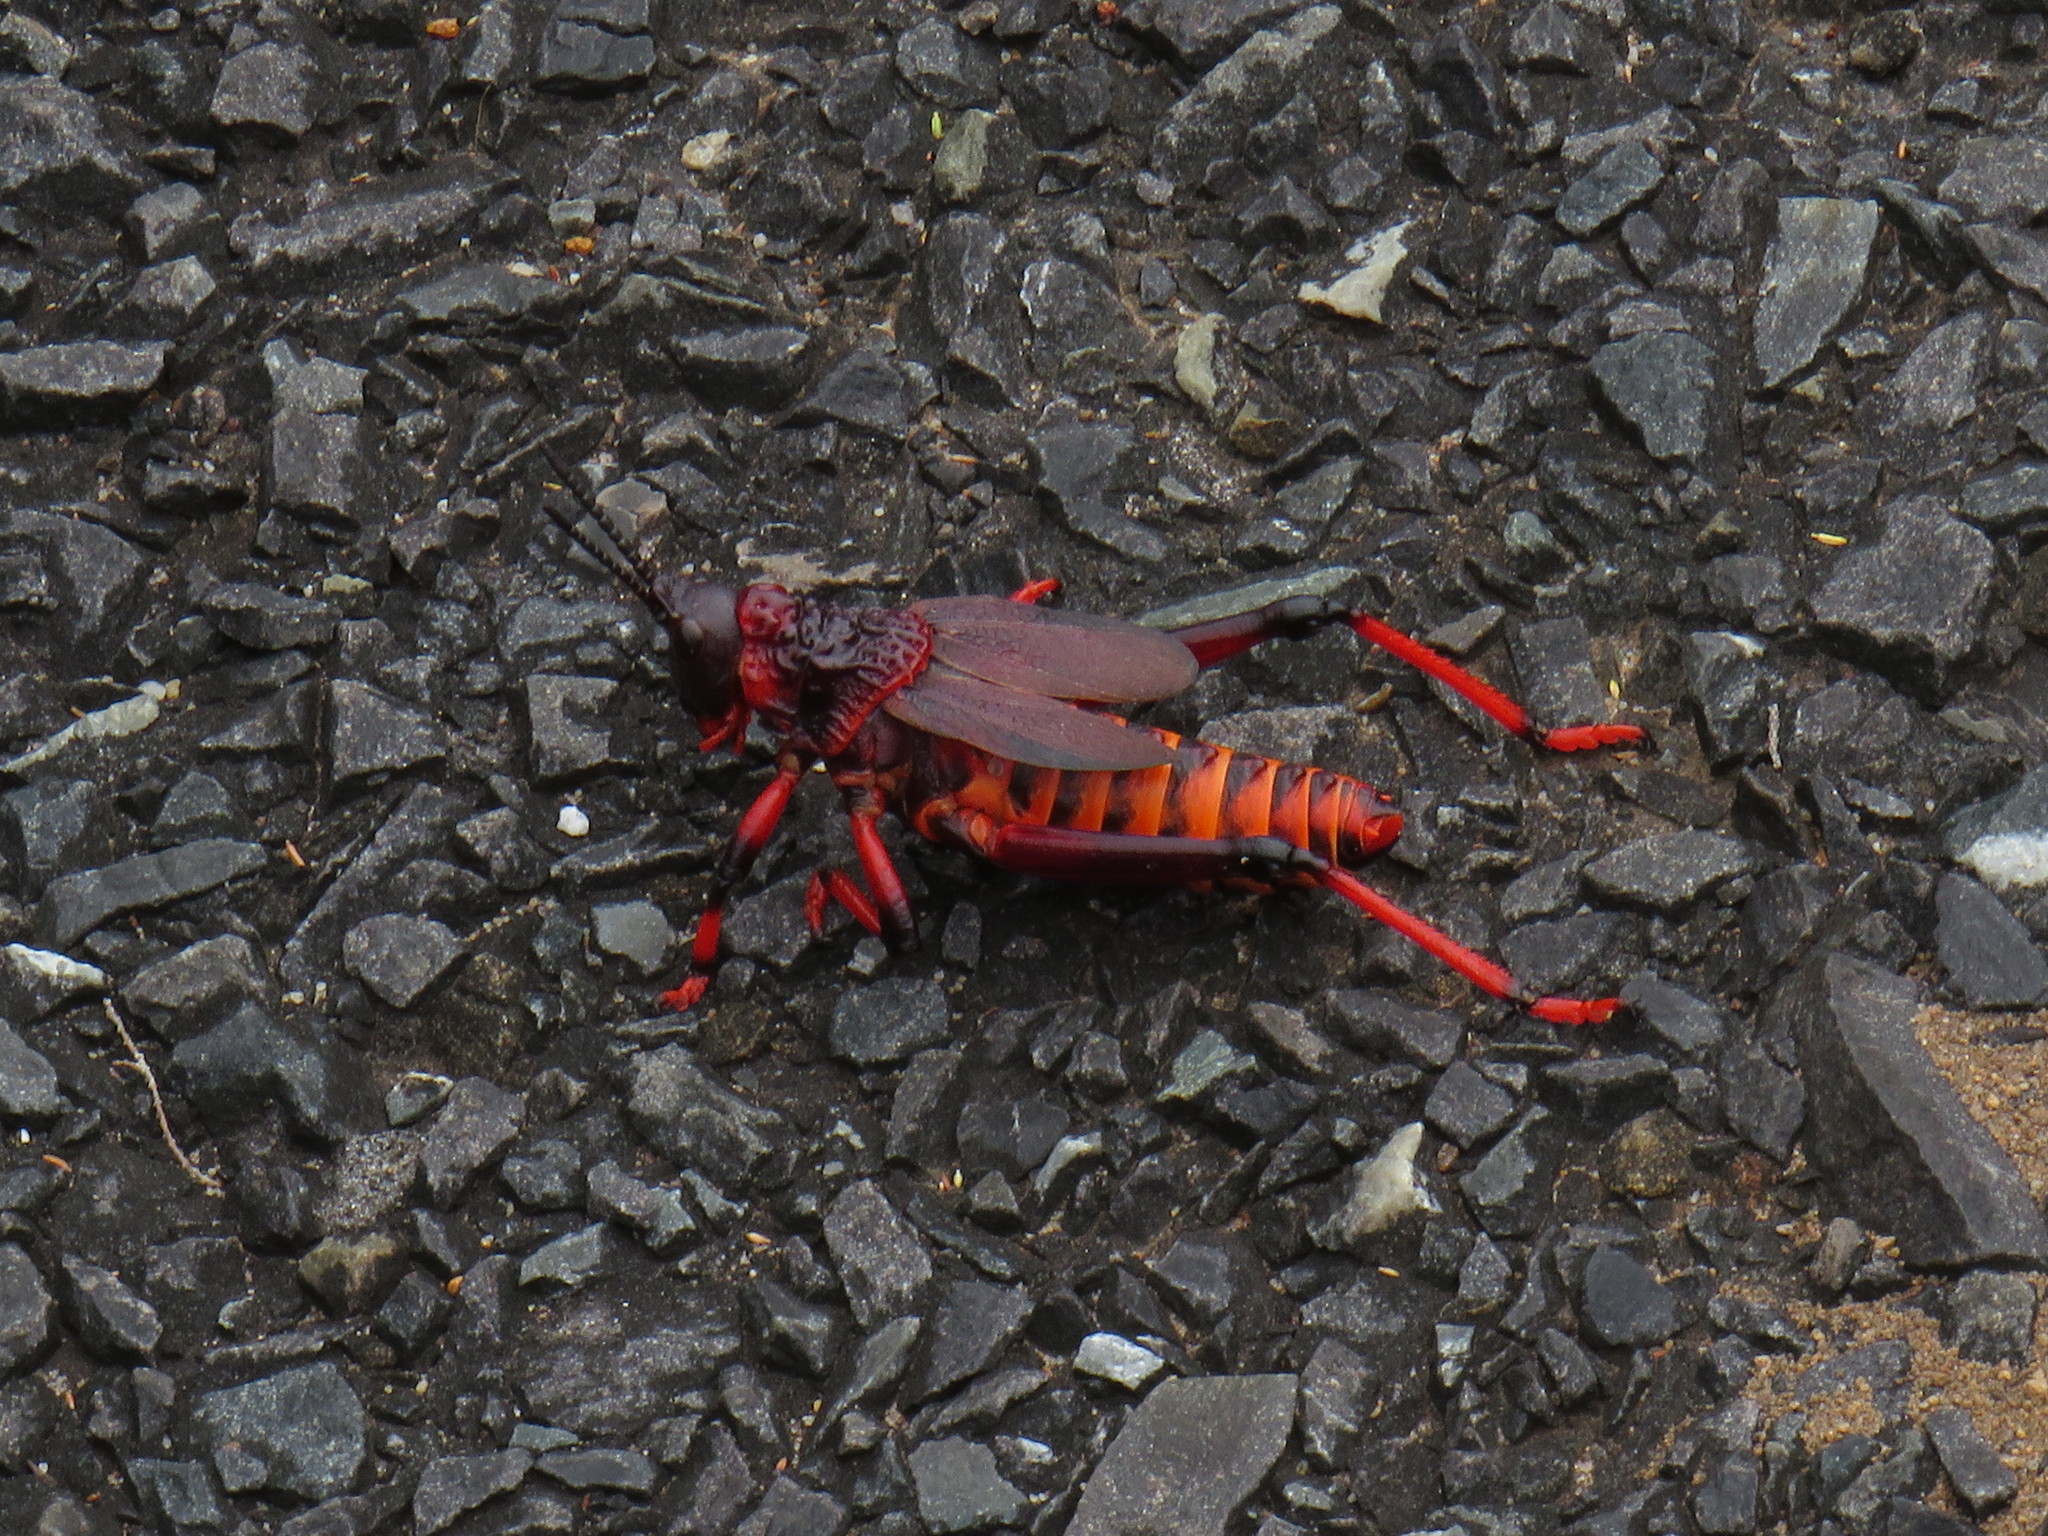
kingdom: Animalia
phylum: Arthropoda
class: Insecta
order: Orthoptera
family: Pyrgomorphidae
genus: Dictyophorus
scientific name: Dictyophorus spumans
